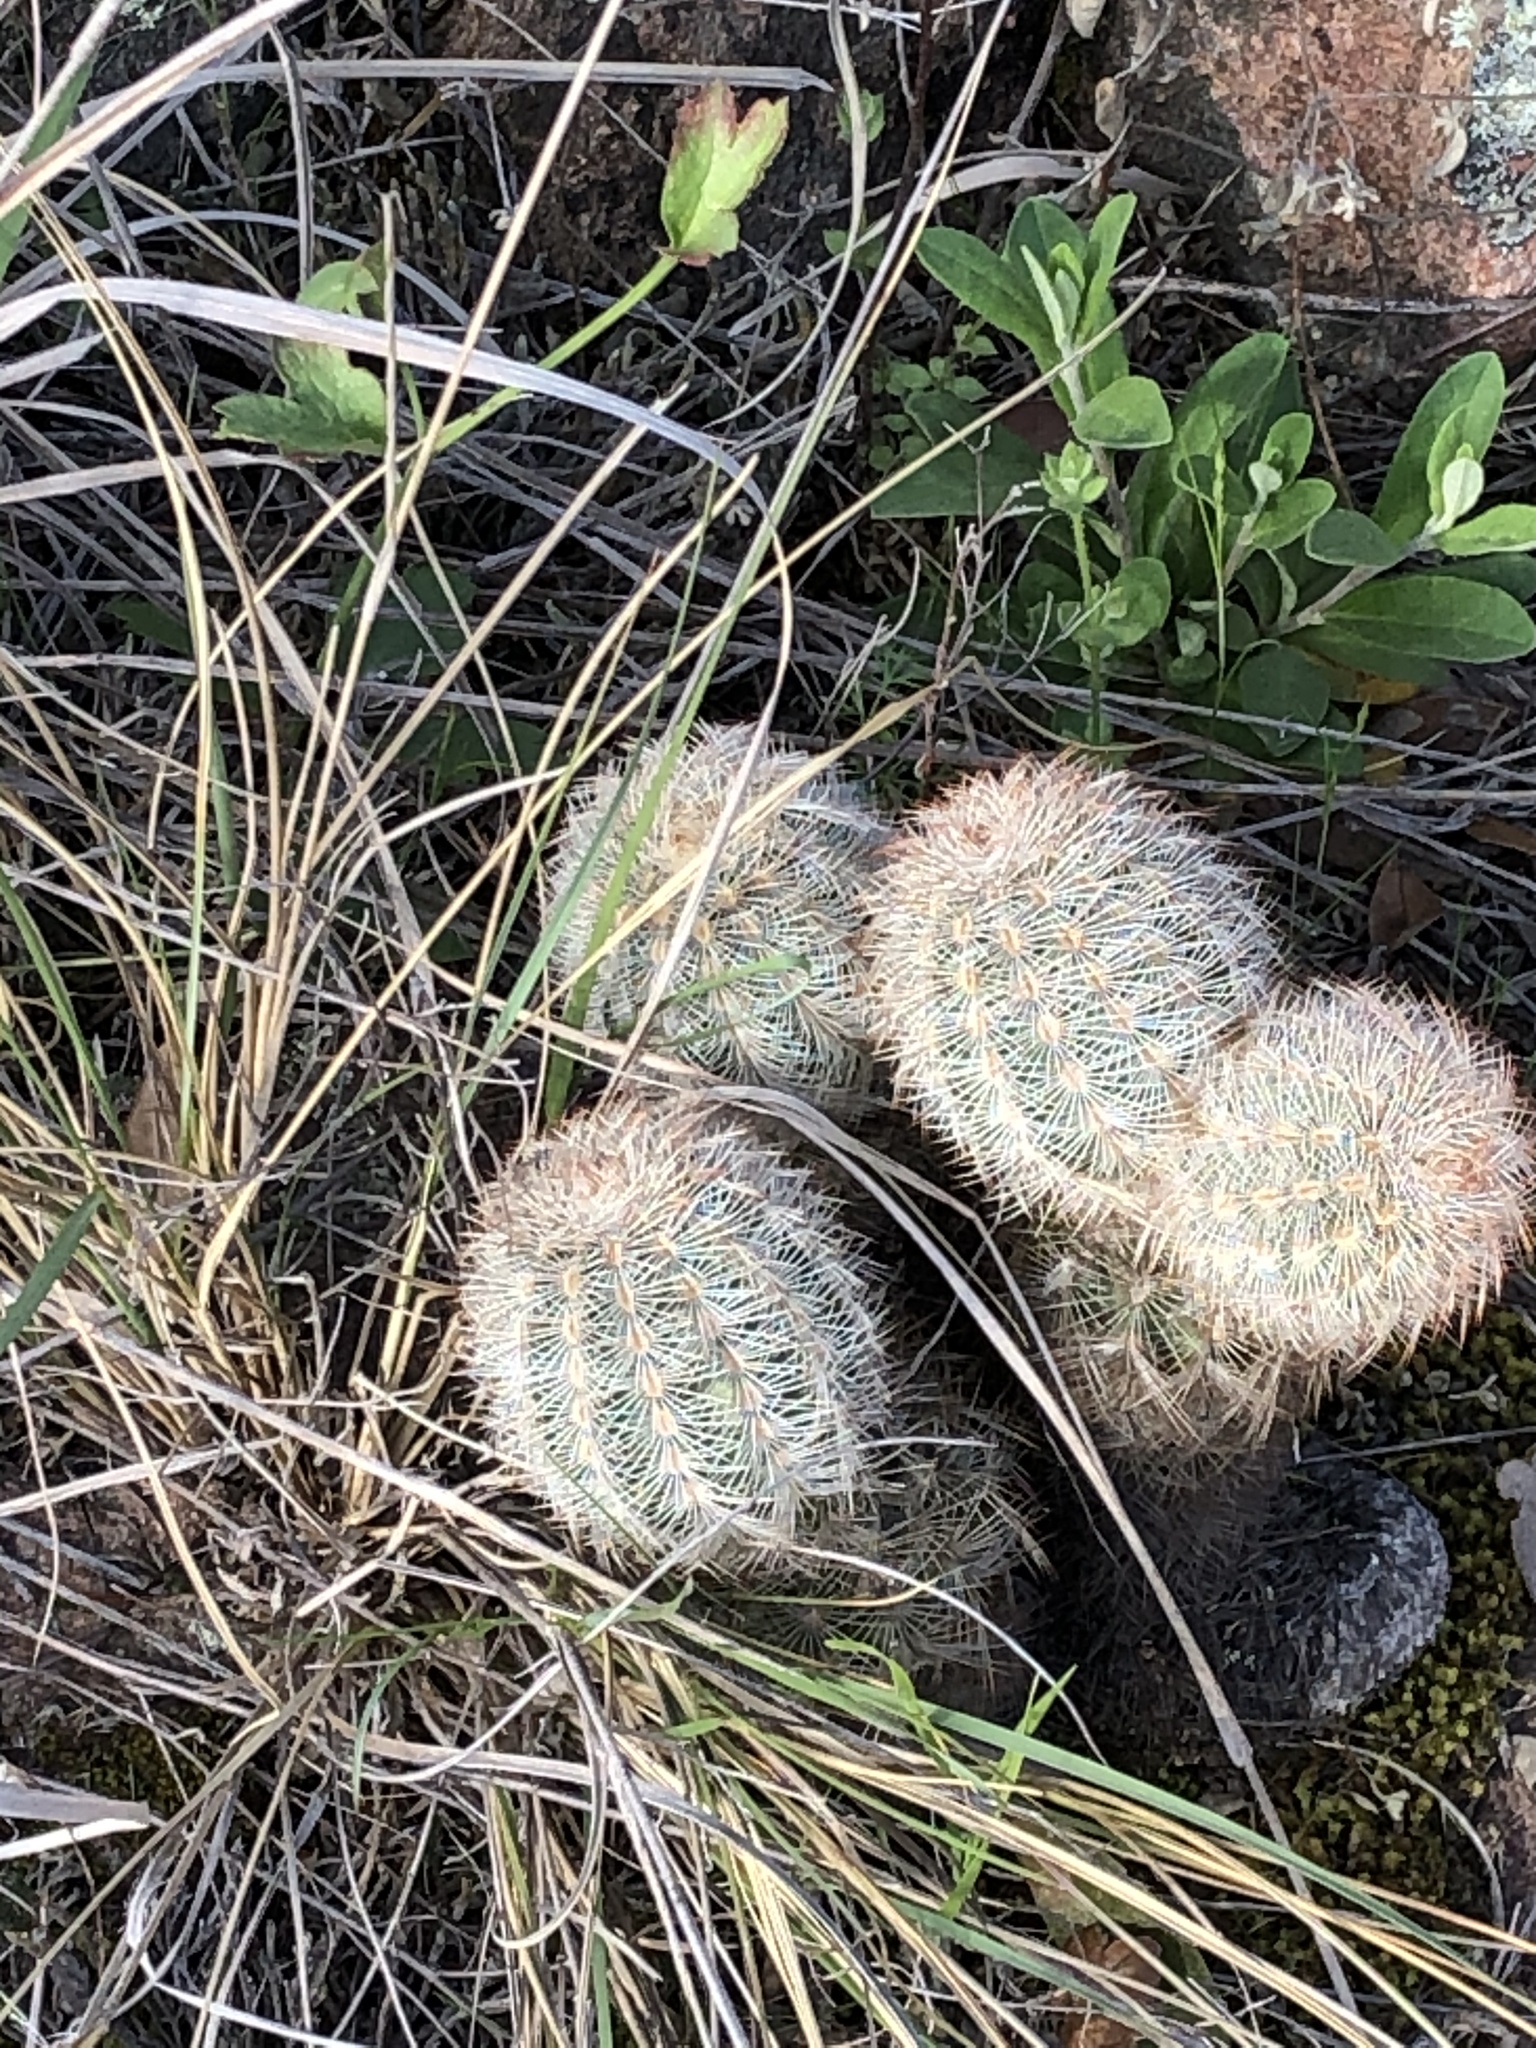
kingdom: Plantae
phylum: Tracheophyta
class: Magnoliopsida
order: Caryophyllales
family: Cactaceae
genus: Echinocereus
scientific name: Echinocereus reichenbachii
